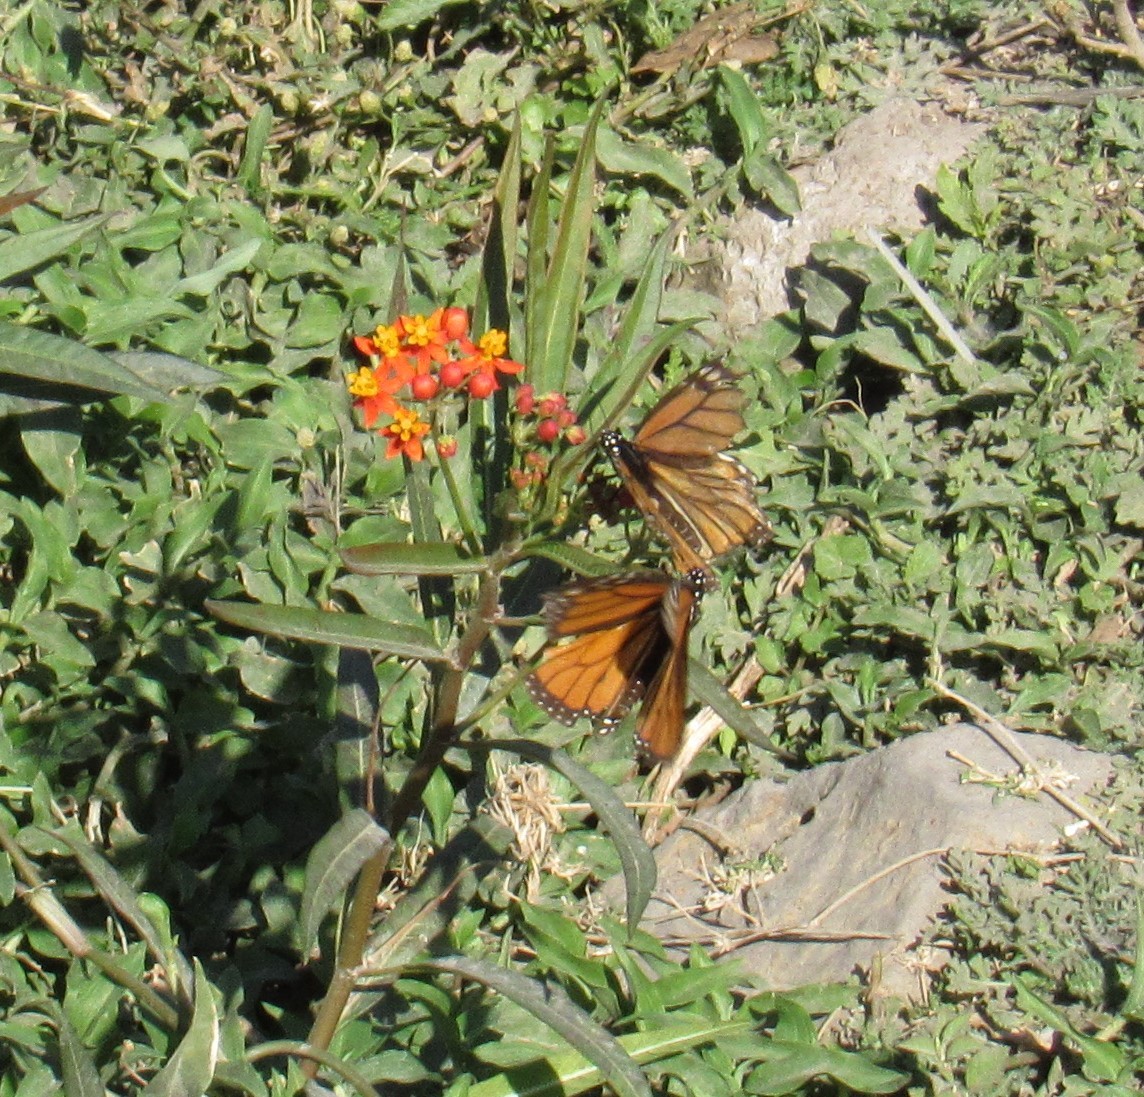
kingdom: Animalia
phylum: Arthropoda
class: Insecta
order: Lepidoptera
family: Nymphalidae
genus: Danaus
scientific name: Danaus plexippus
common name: Monarch
